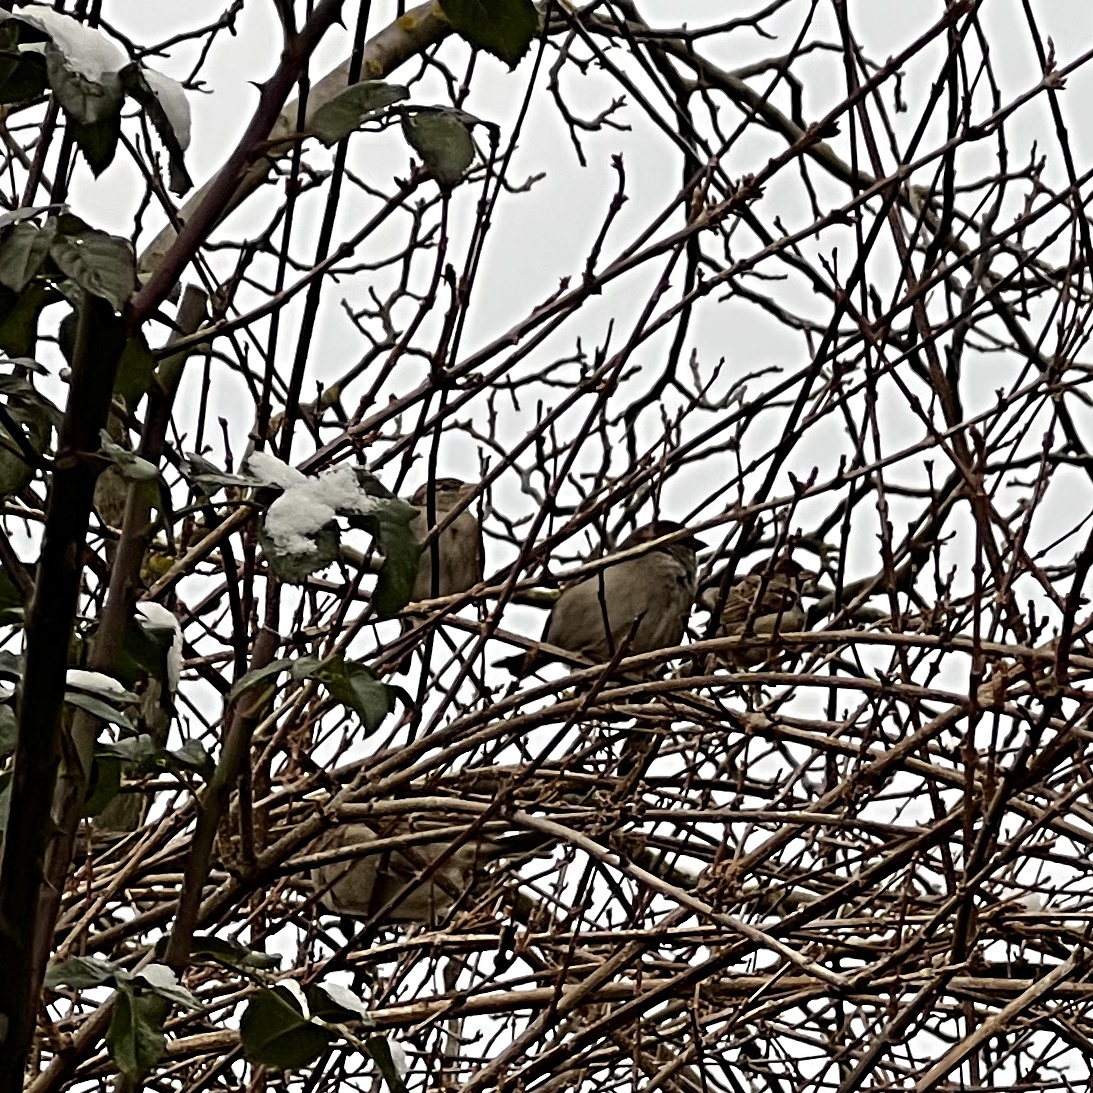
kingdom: Animalia
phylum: Chordata
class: Aves
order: Passeriformes
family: Passeridae
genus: Passer
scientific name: Passer domesticus
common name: House sparrow
